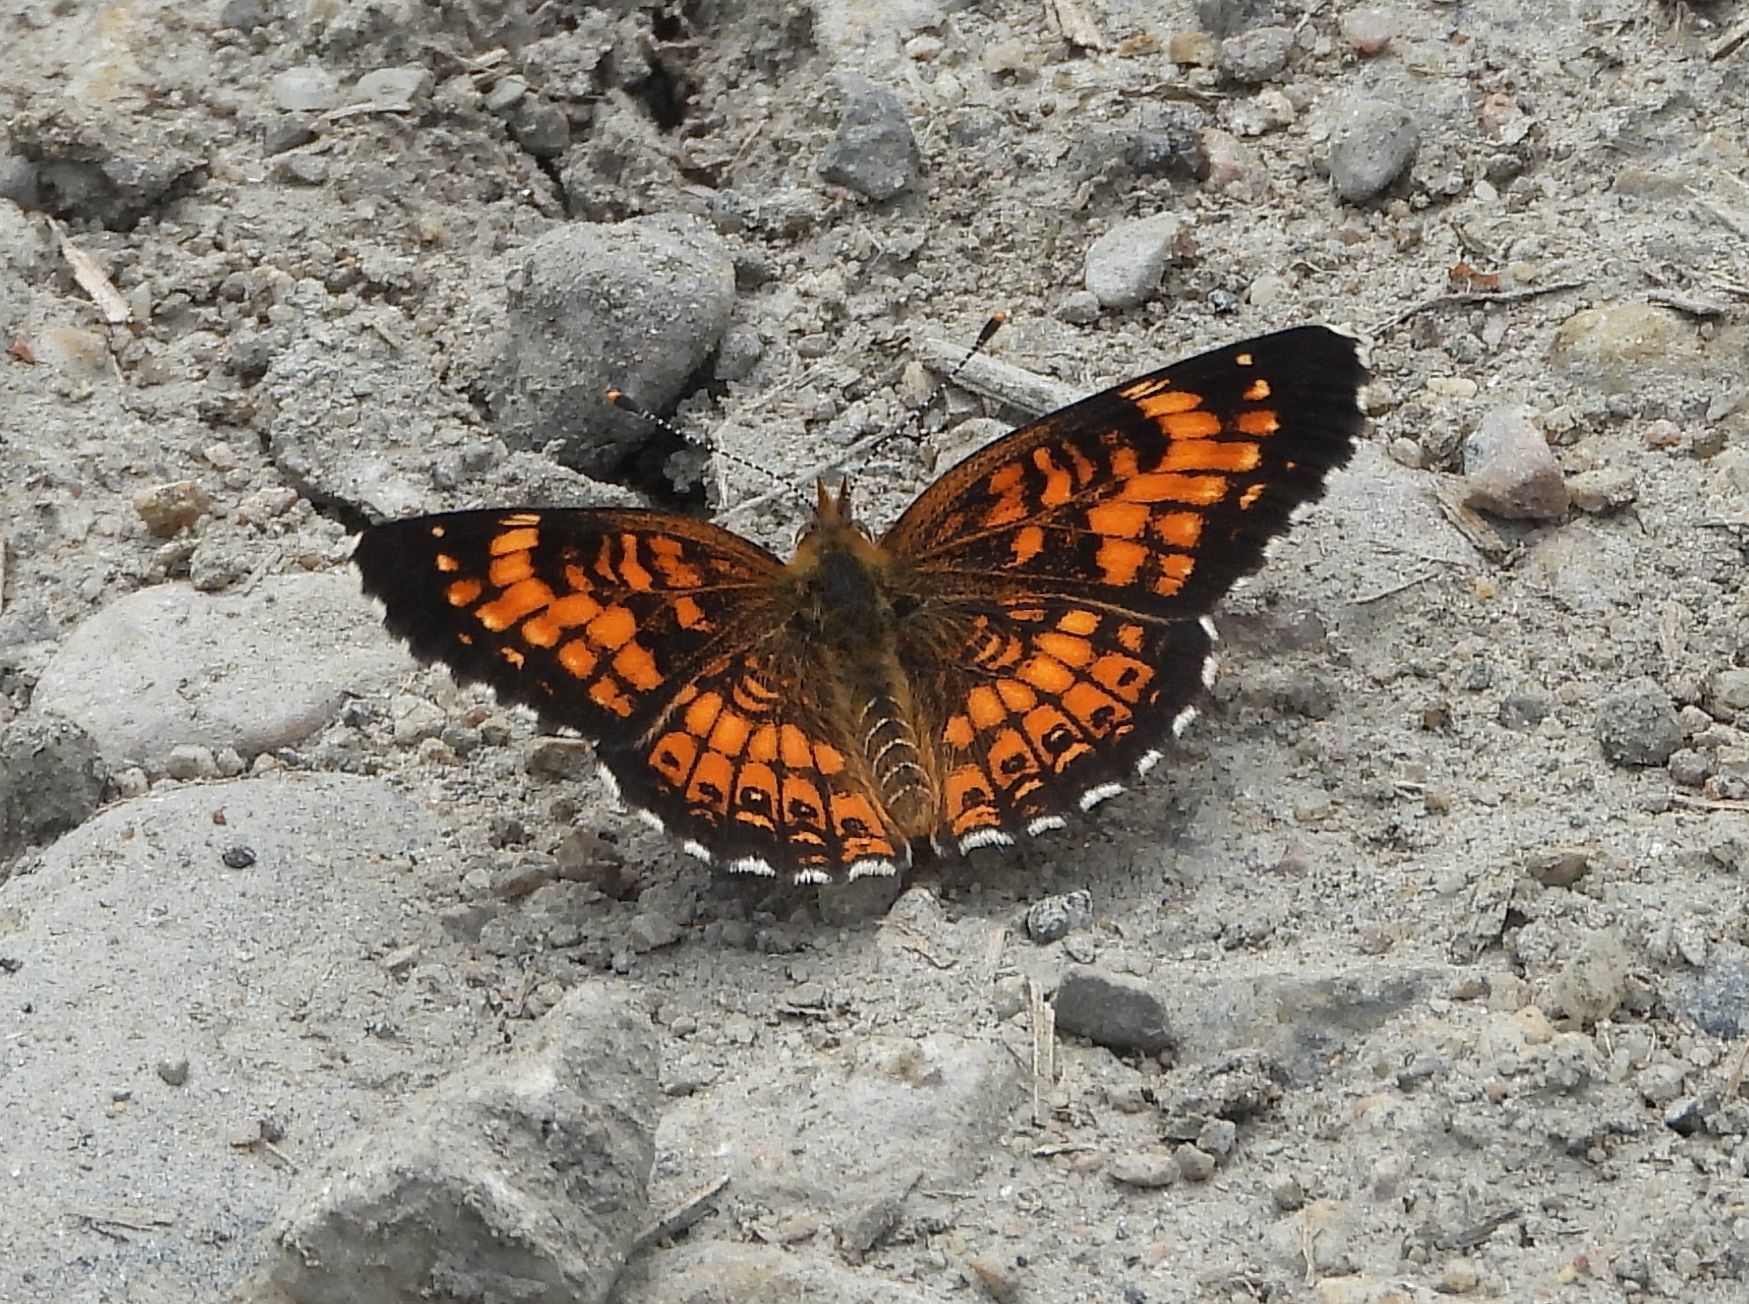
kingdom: Animalia
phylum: Arthropoda
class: Insecta
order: Lepidoptera
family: Nymphalidae
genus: Chlosyne
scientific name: Chlosyne harrisii
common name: Harris's checkerspot
